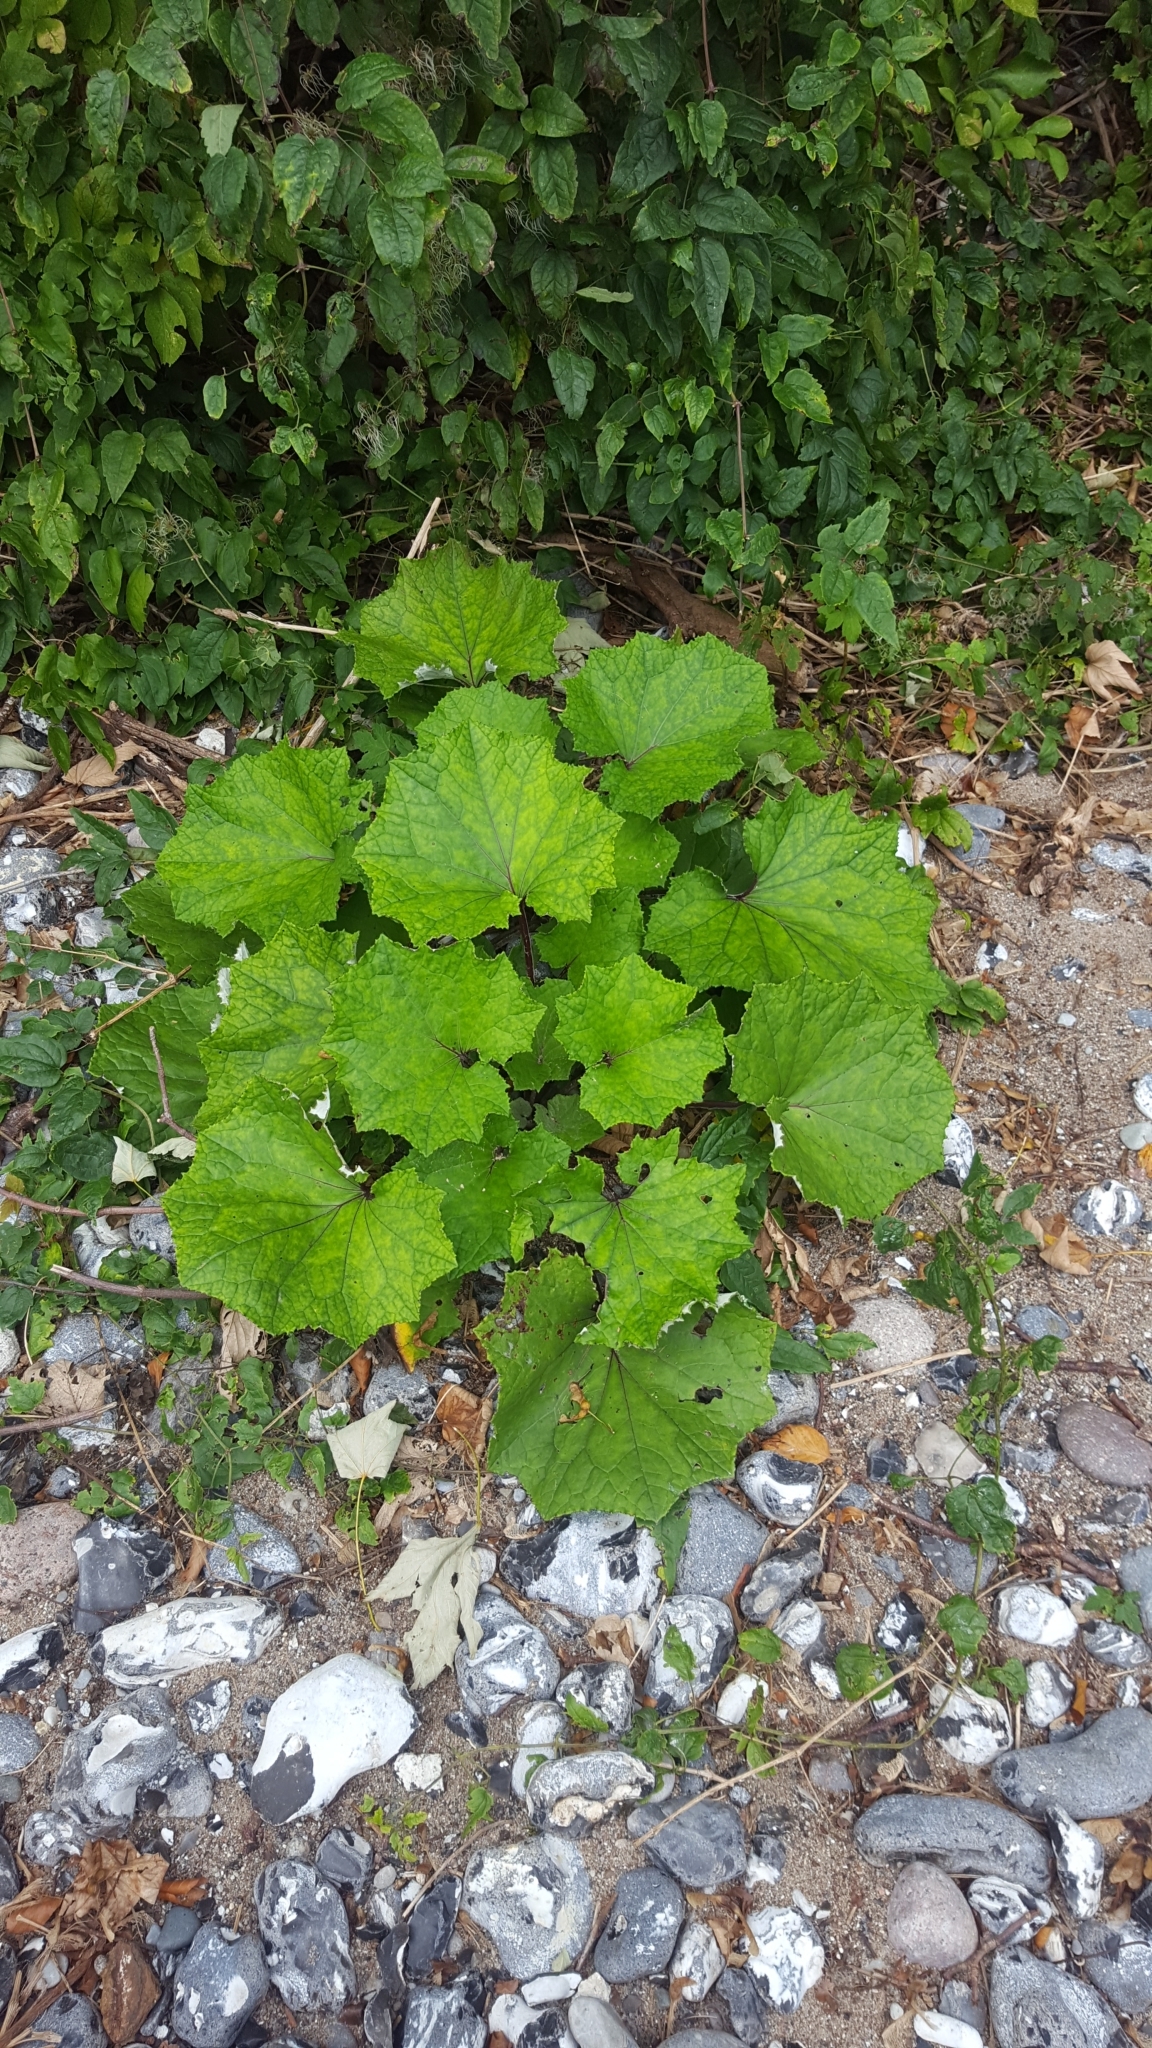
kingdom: Plantae
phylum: Tracheophyta
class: Magnoliopsida
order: Asterales
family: Asteraceae
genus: Tussilago
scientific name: Tussilago farfara
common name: Coltsfoot
